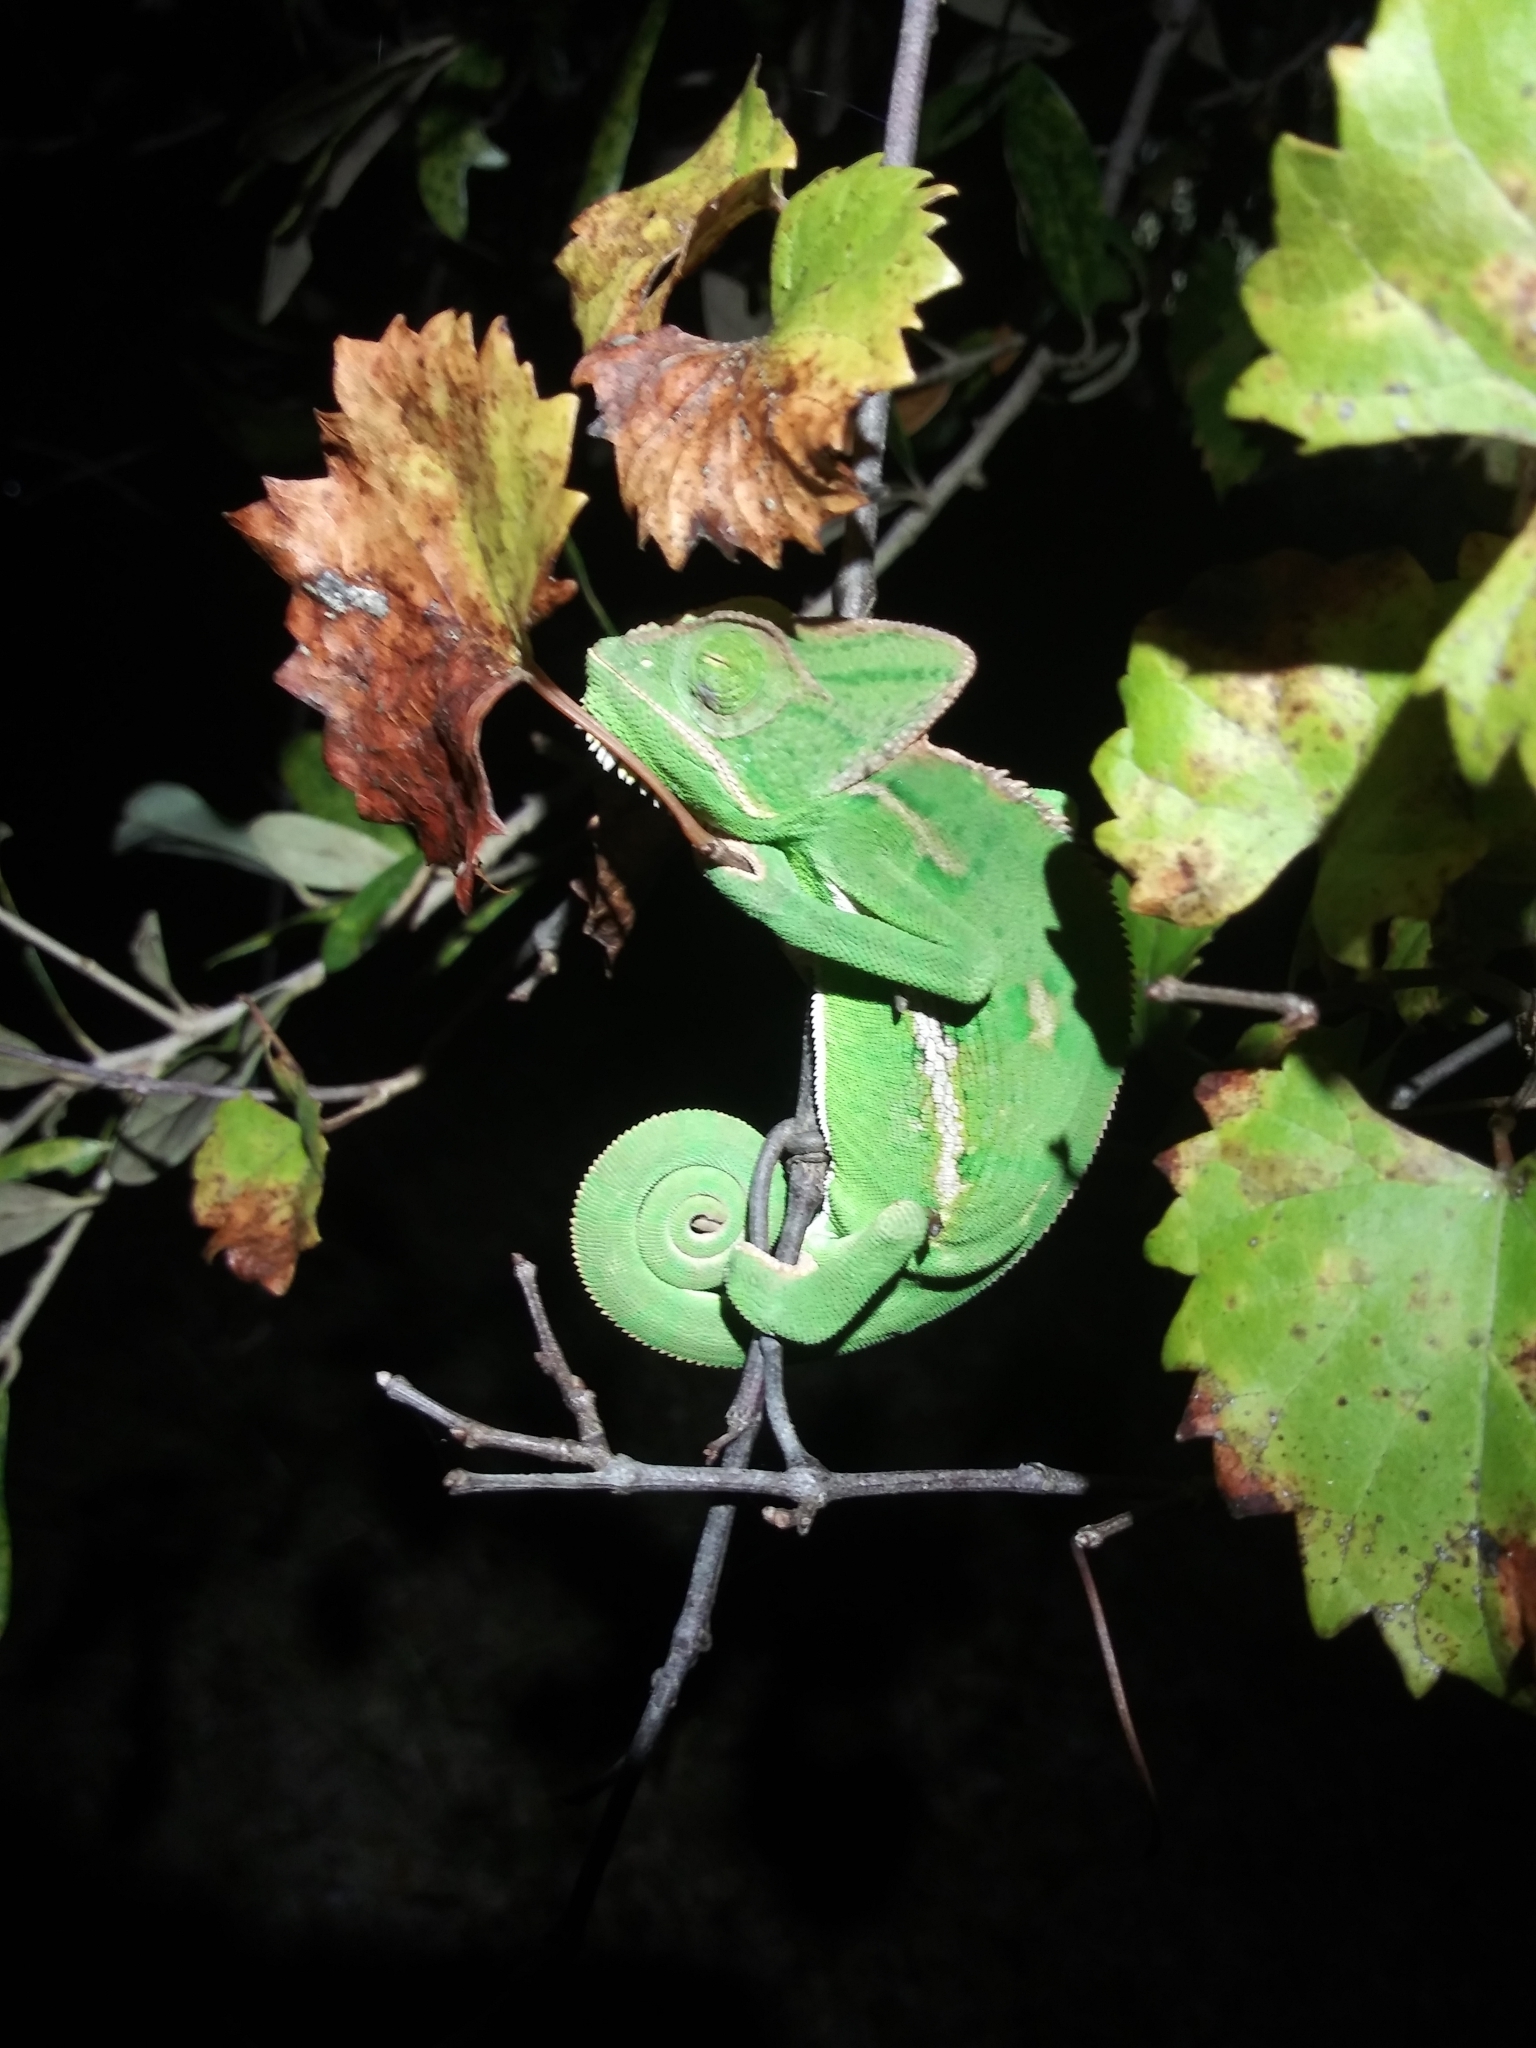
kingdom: Animalia
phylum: Chordata
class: Squamata
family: Chamaeleonidae
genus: Chamaeleo
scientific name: Chamaeleo calyptratus
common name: Veiled chameleon
